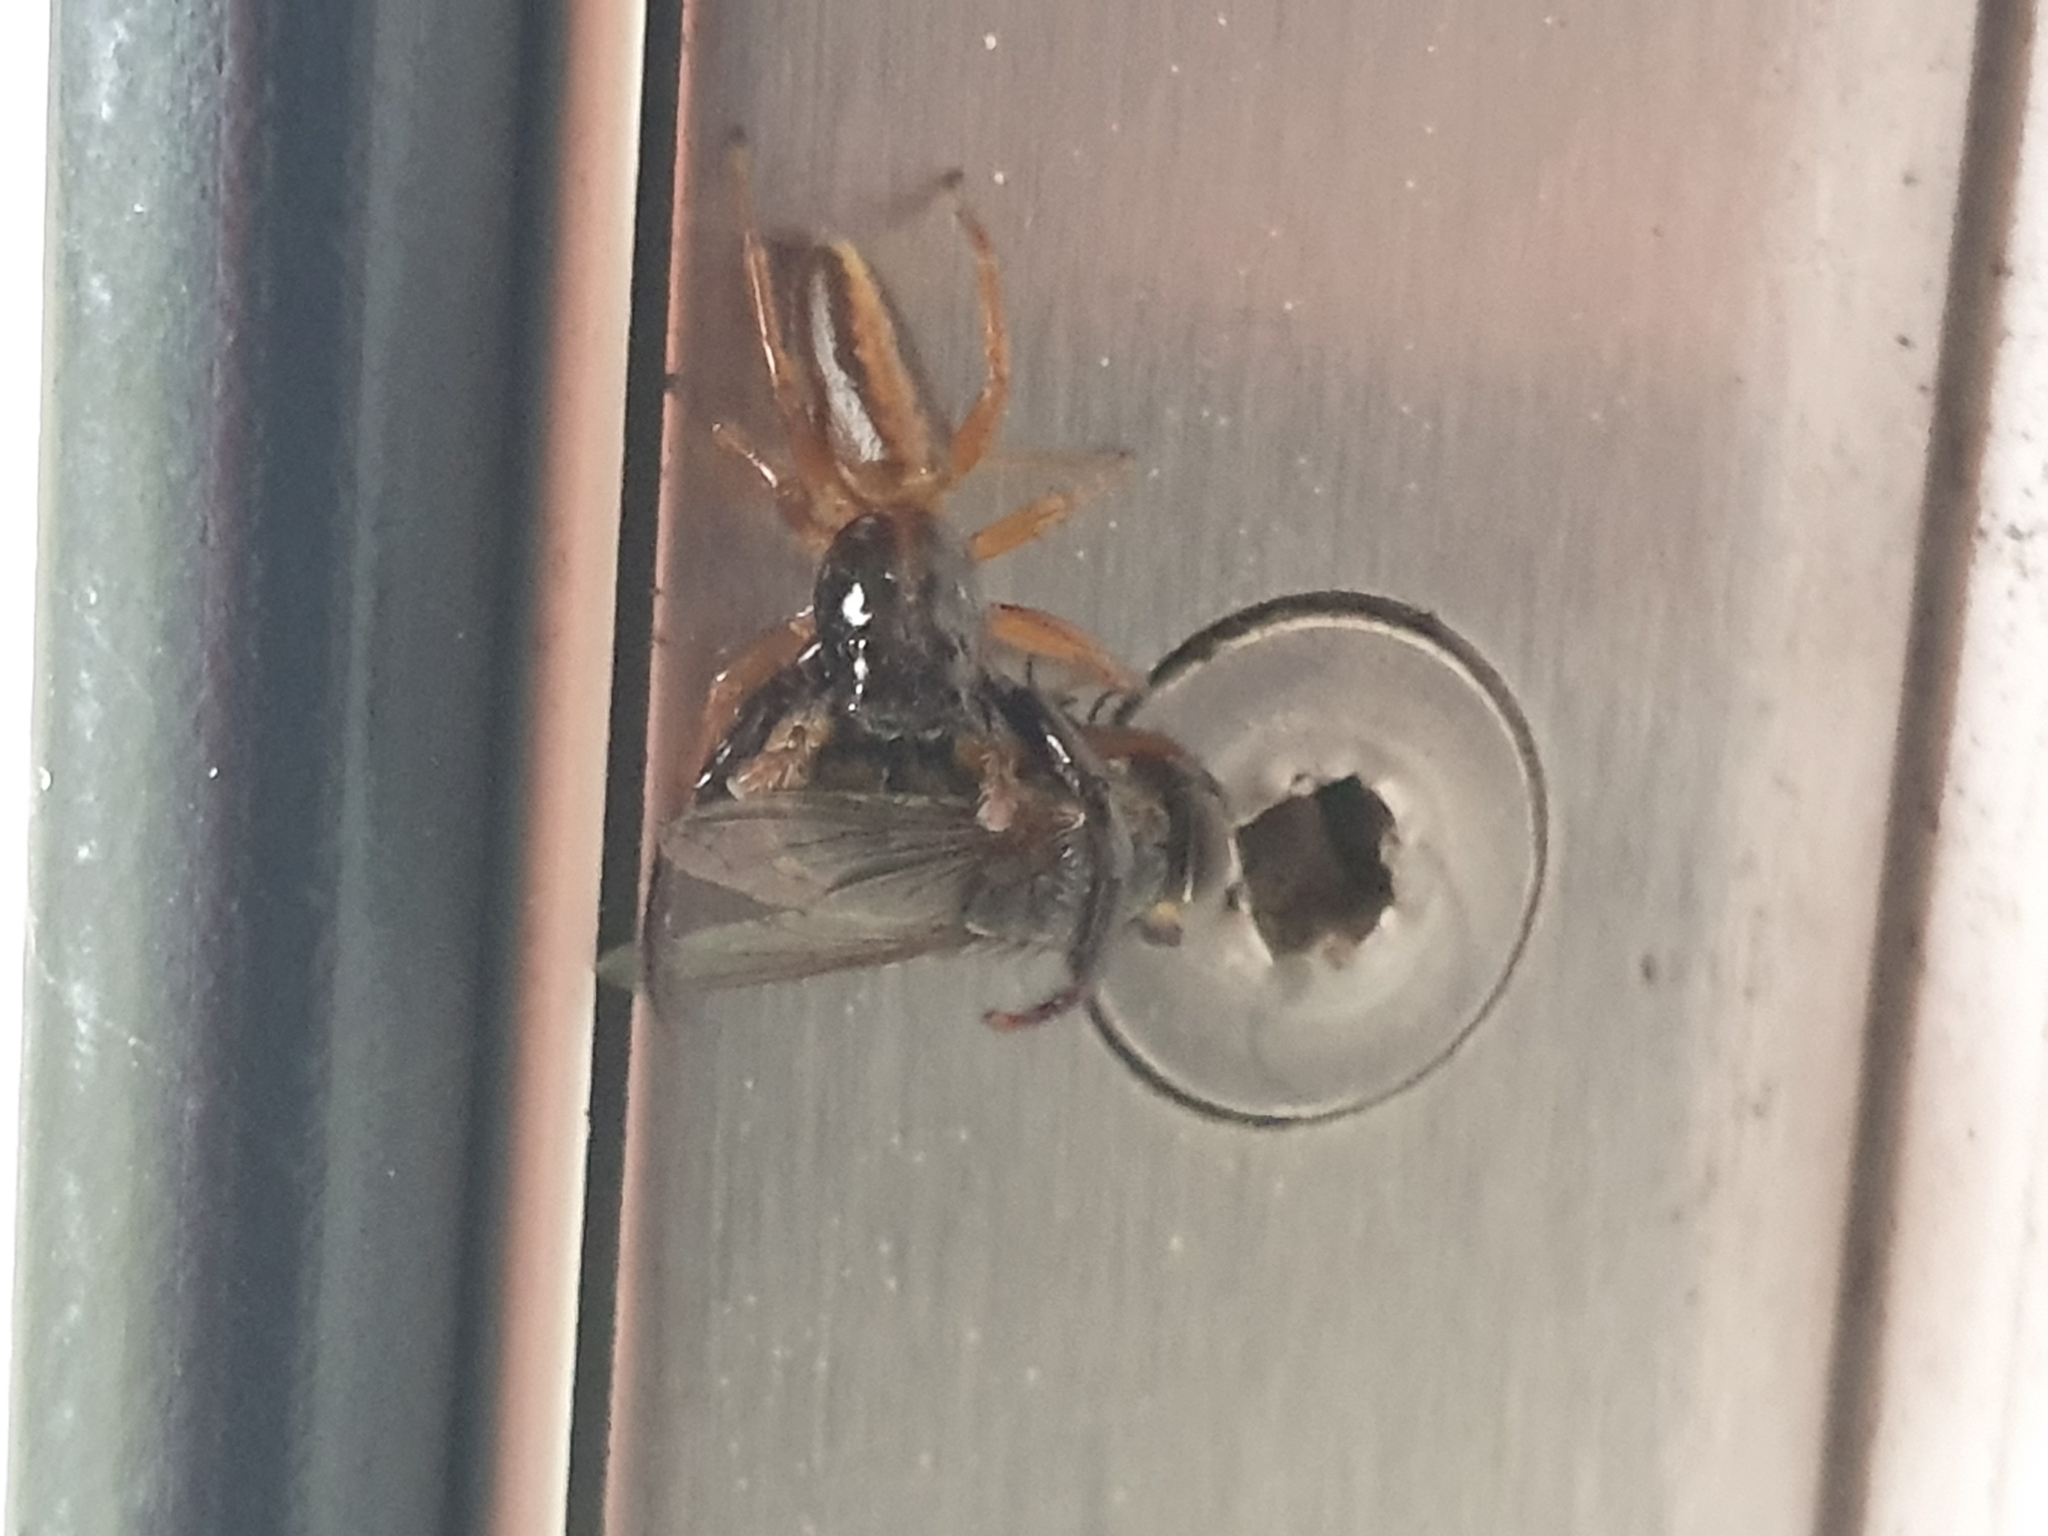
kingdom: Animalia
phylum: Arthropoda
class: Arachnida
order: Araneae
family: Salticidae
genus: Trite
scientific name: Trite planiceps
